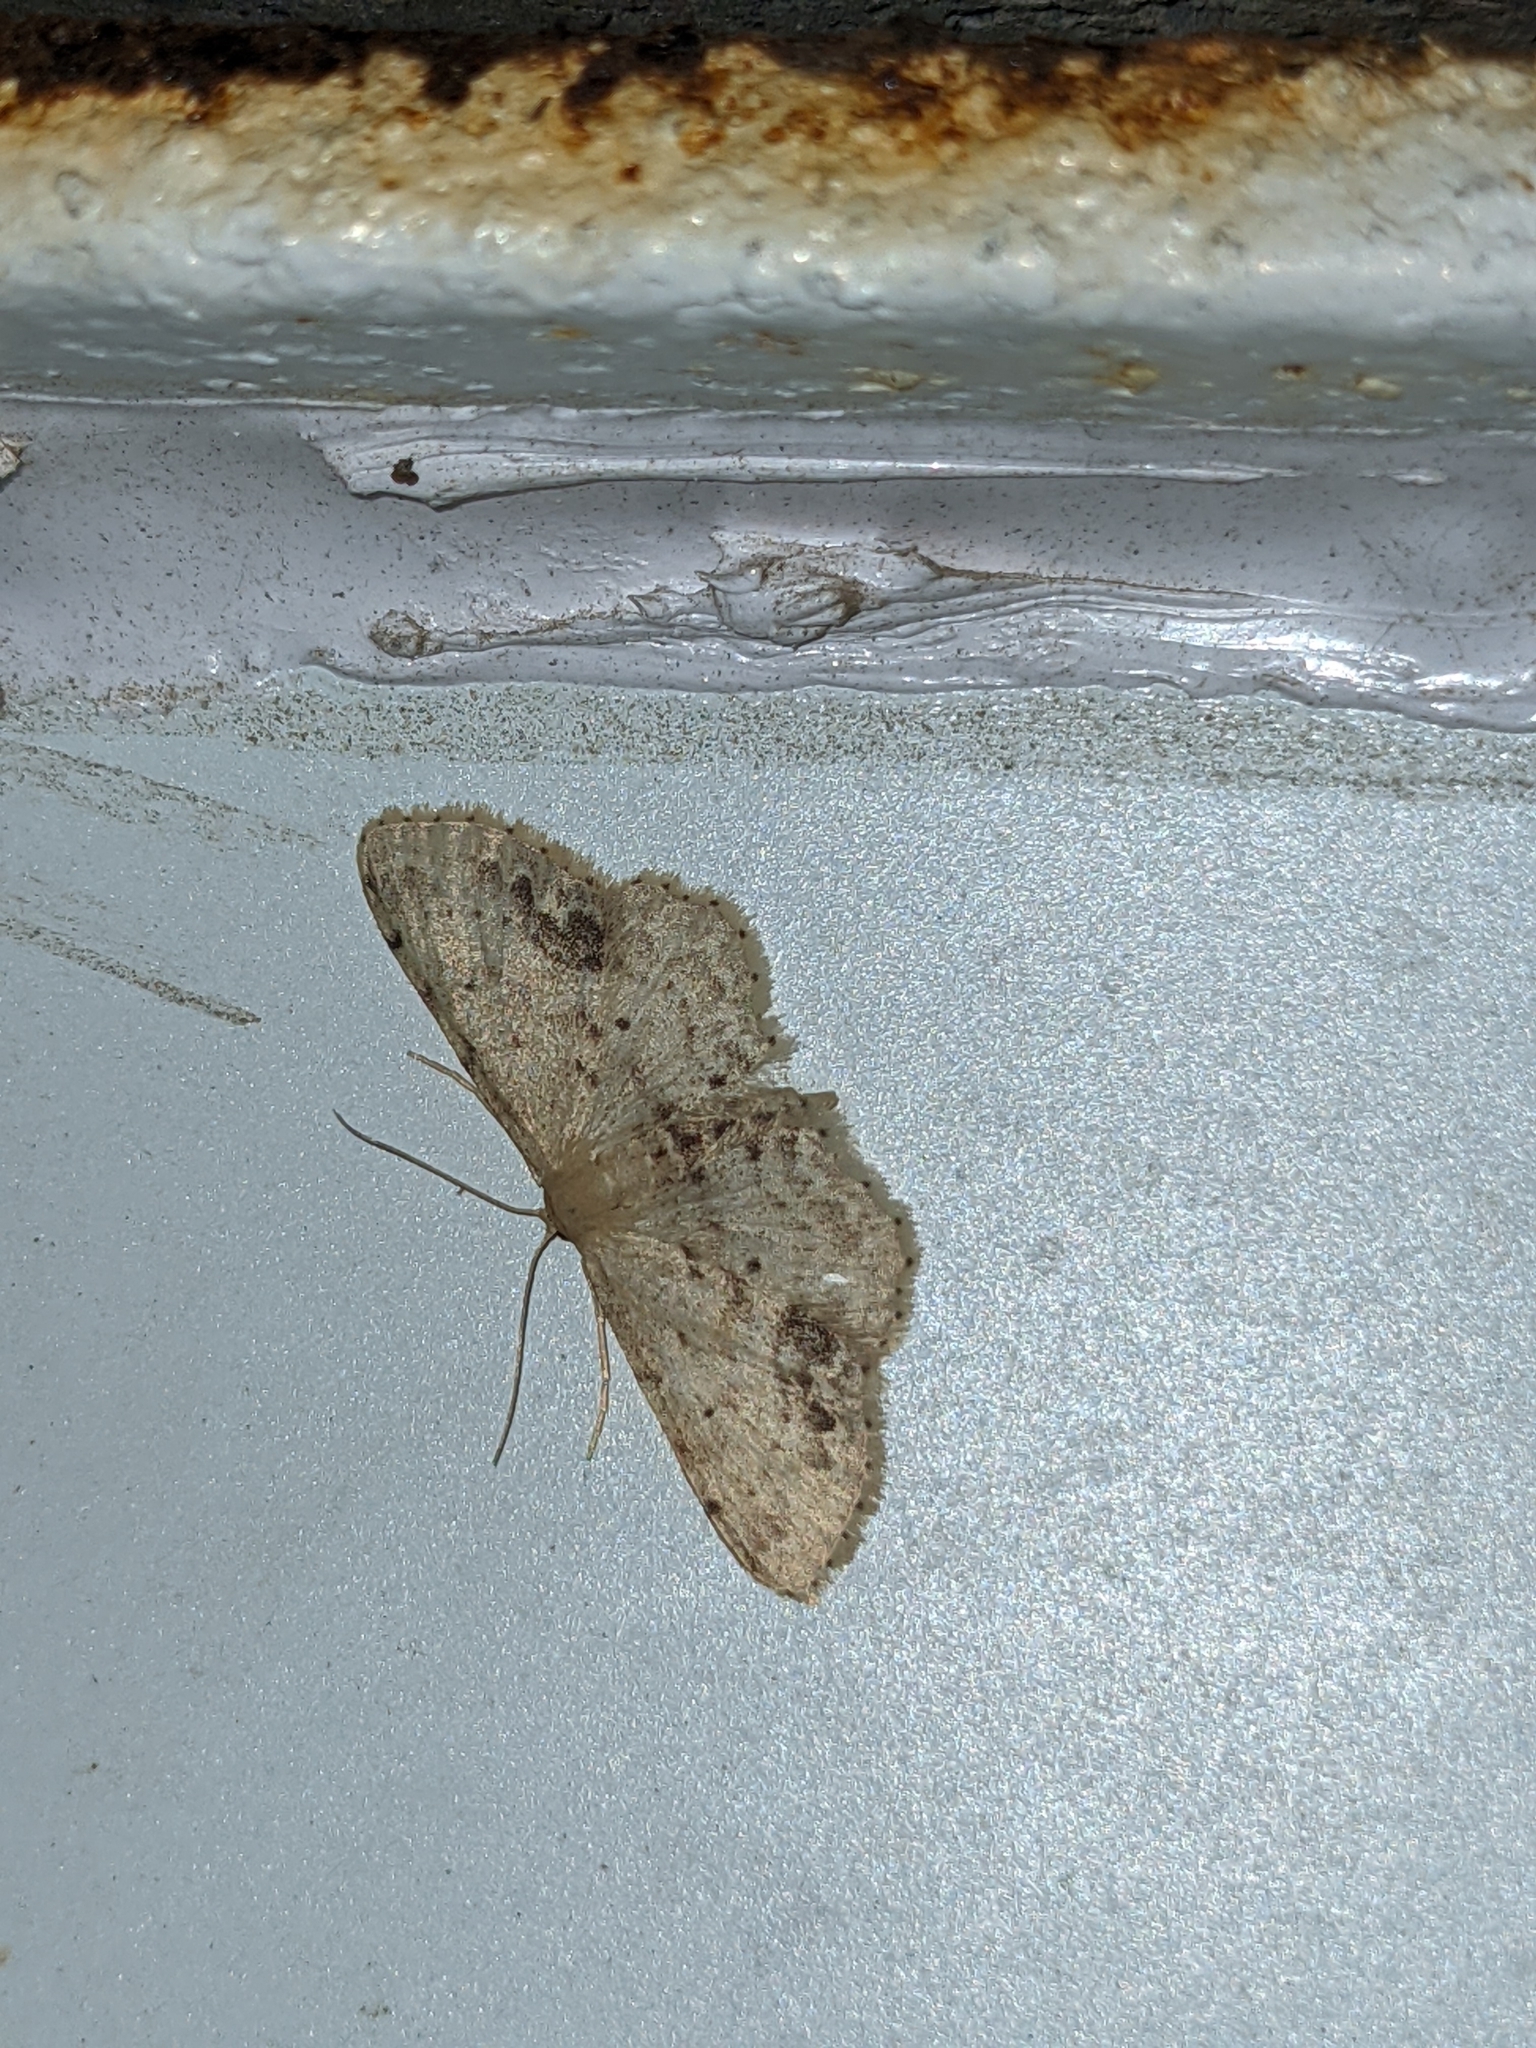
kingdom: Animalia
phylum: Arthropoda
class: Insecta
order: Lepidoptera
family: Geometridae
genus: Idaea
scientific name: Idaea dimidiata
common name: Single-dotted wave
